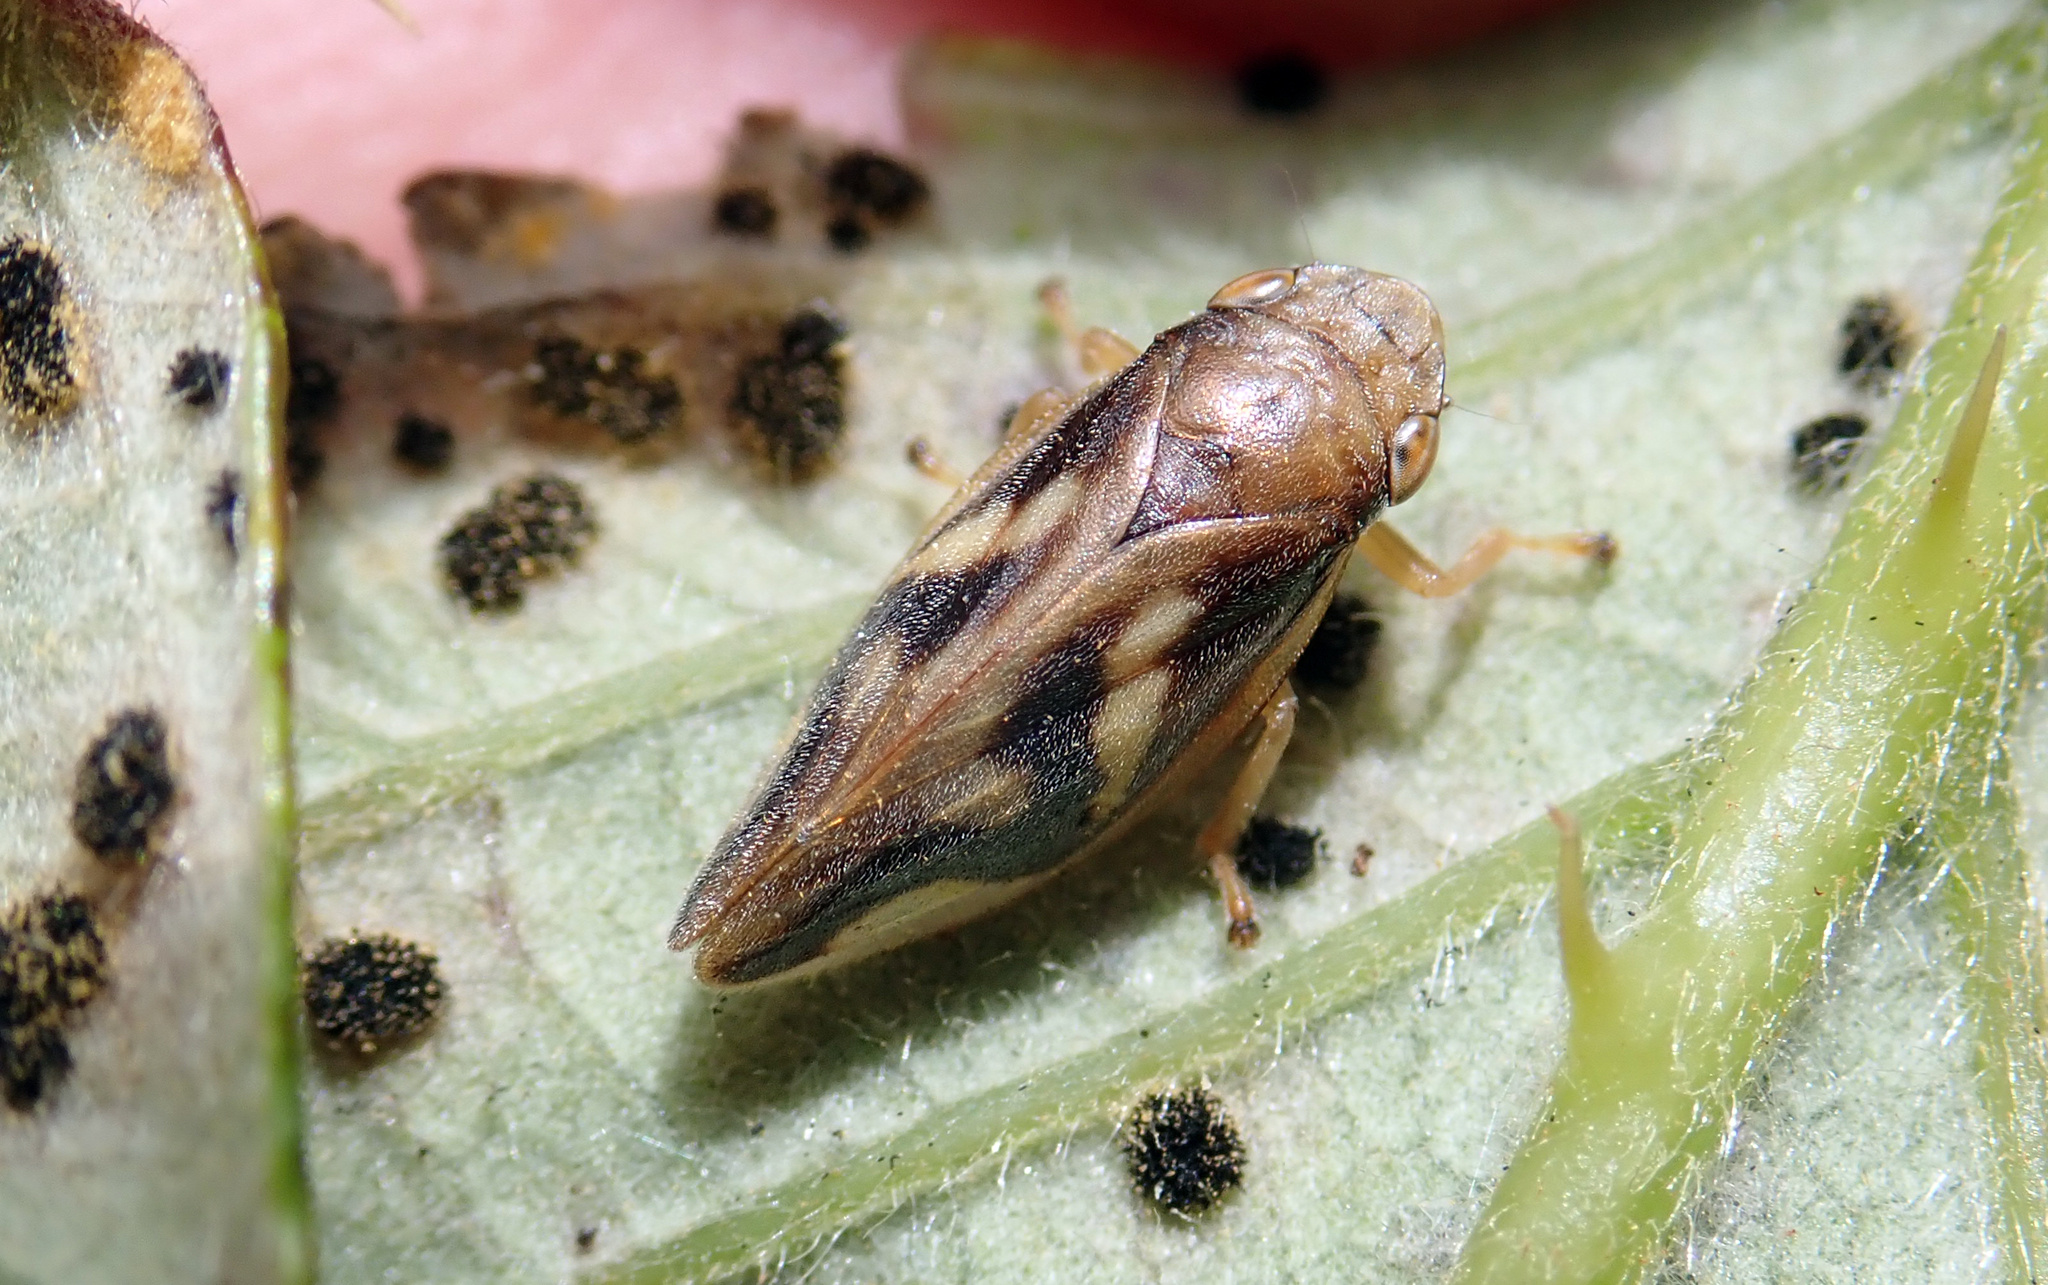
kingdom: Animalia
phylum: Arthropoda
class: Insecta
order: Hemiptera
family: Aphrophoridae
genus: Carystoterpa
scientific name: Carystoterpa tristis
